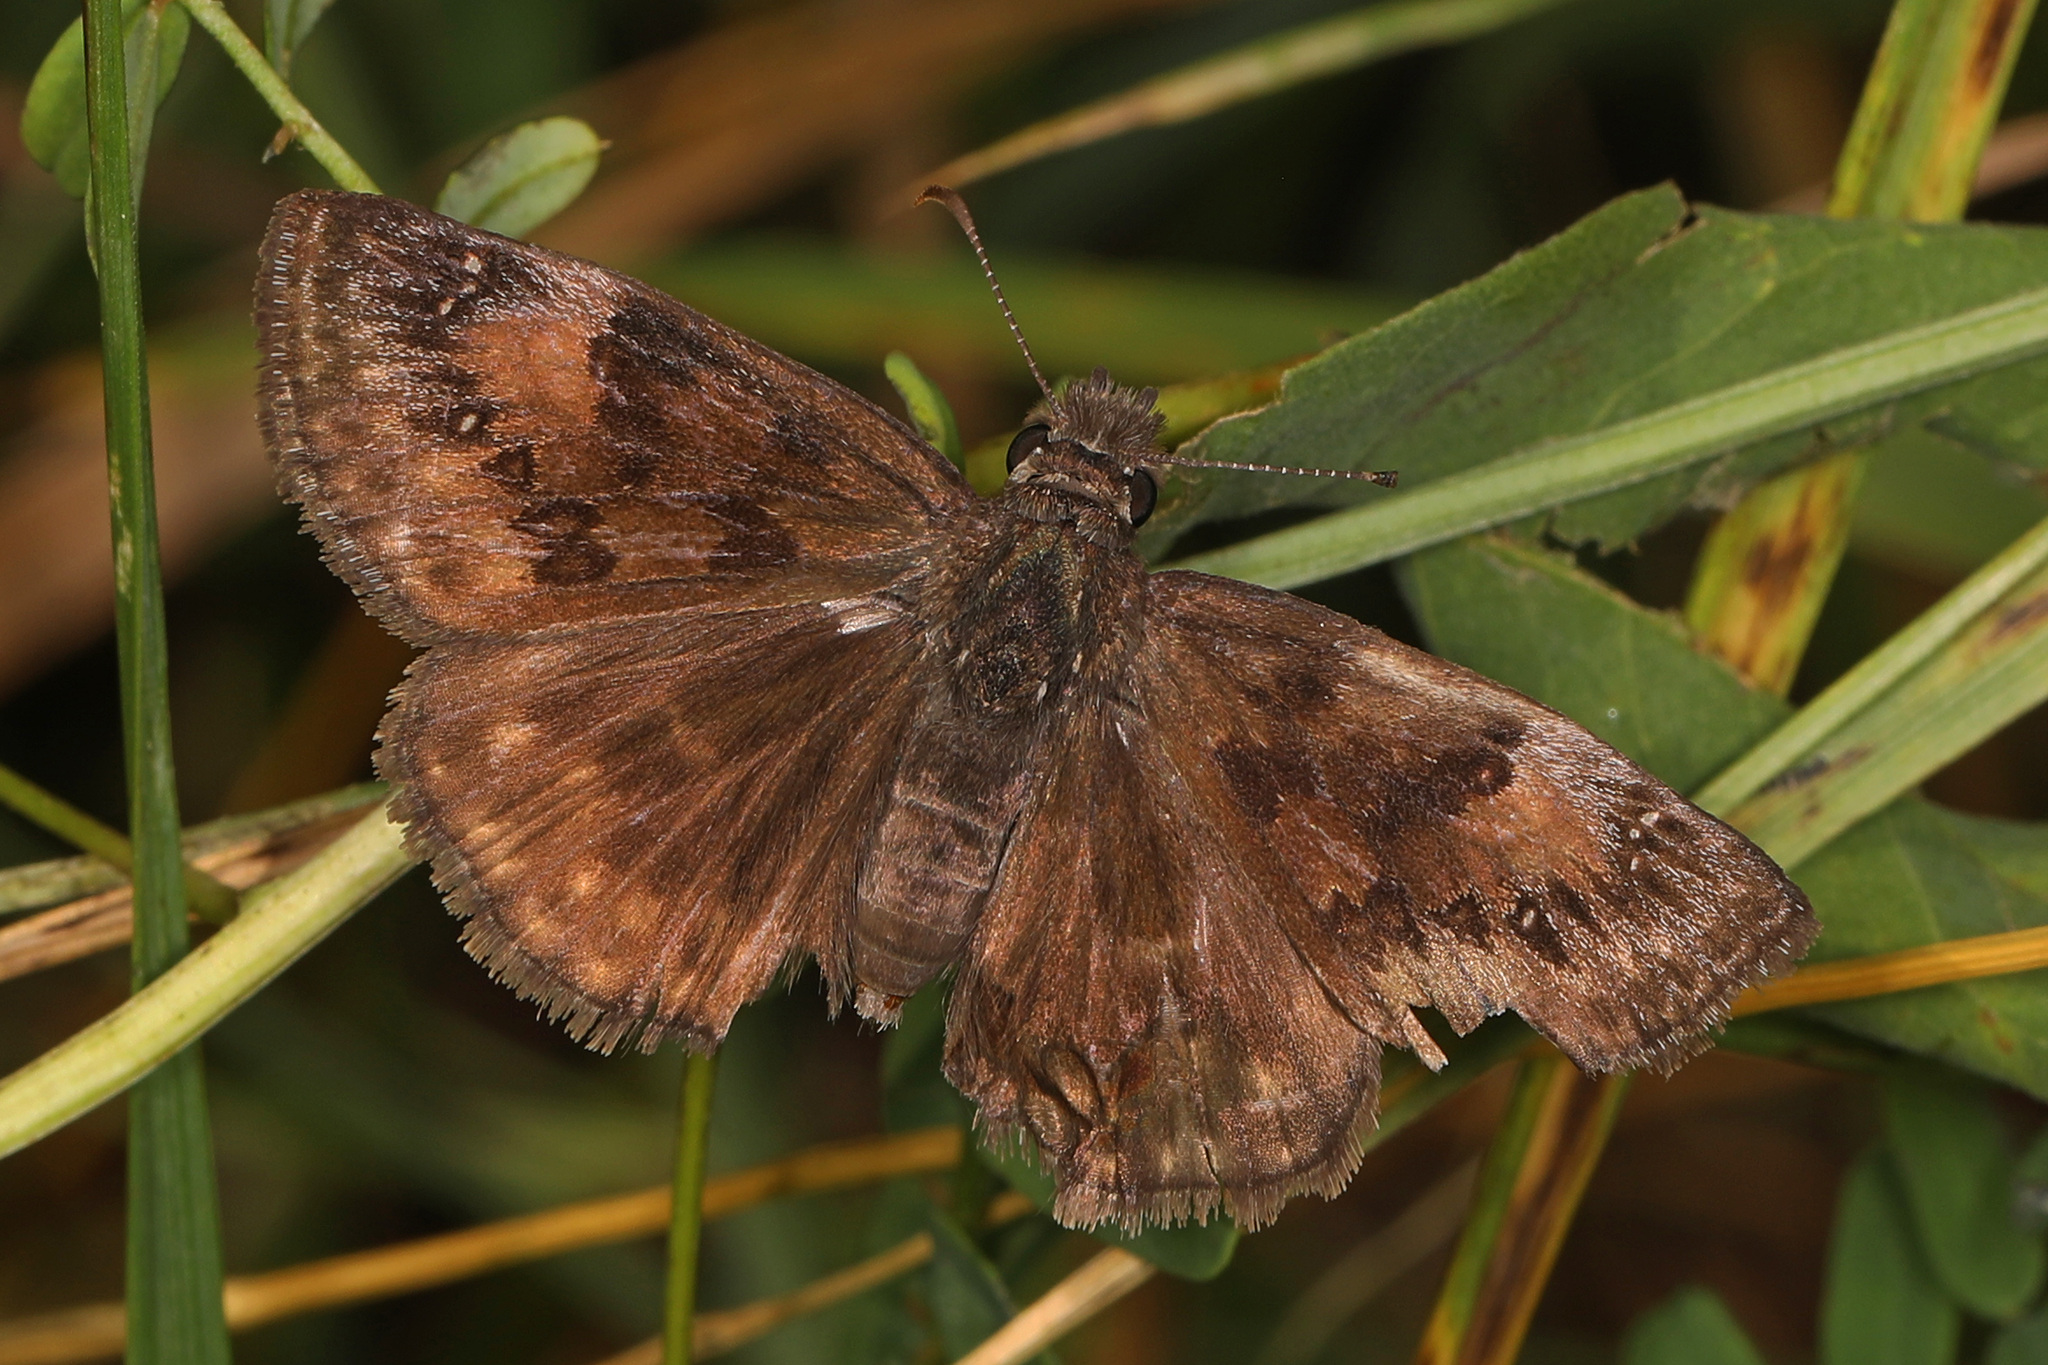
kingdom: Animalia
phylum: Arthropoda
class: Insecta
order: Lepidoptera
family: Hesperiidae
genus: Erynnis
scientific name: Erynnis baptisiae
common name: Wild indigo duskywing
